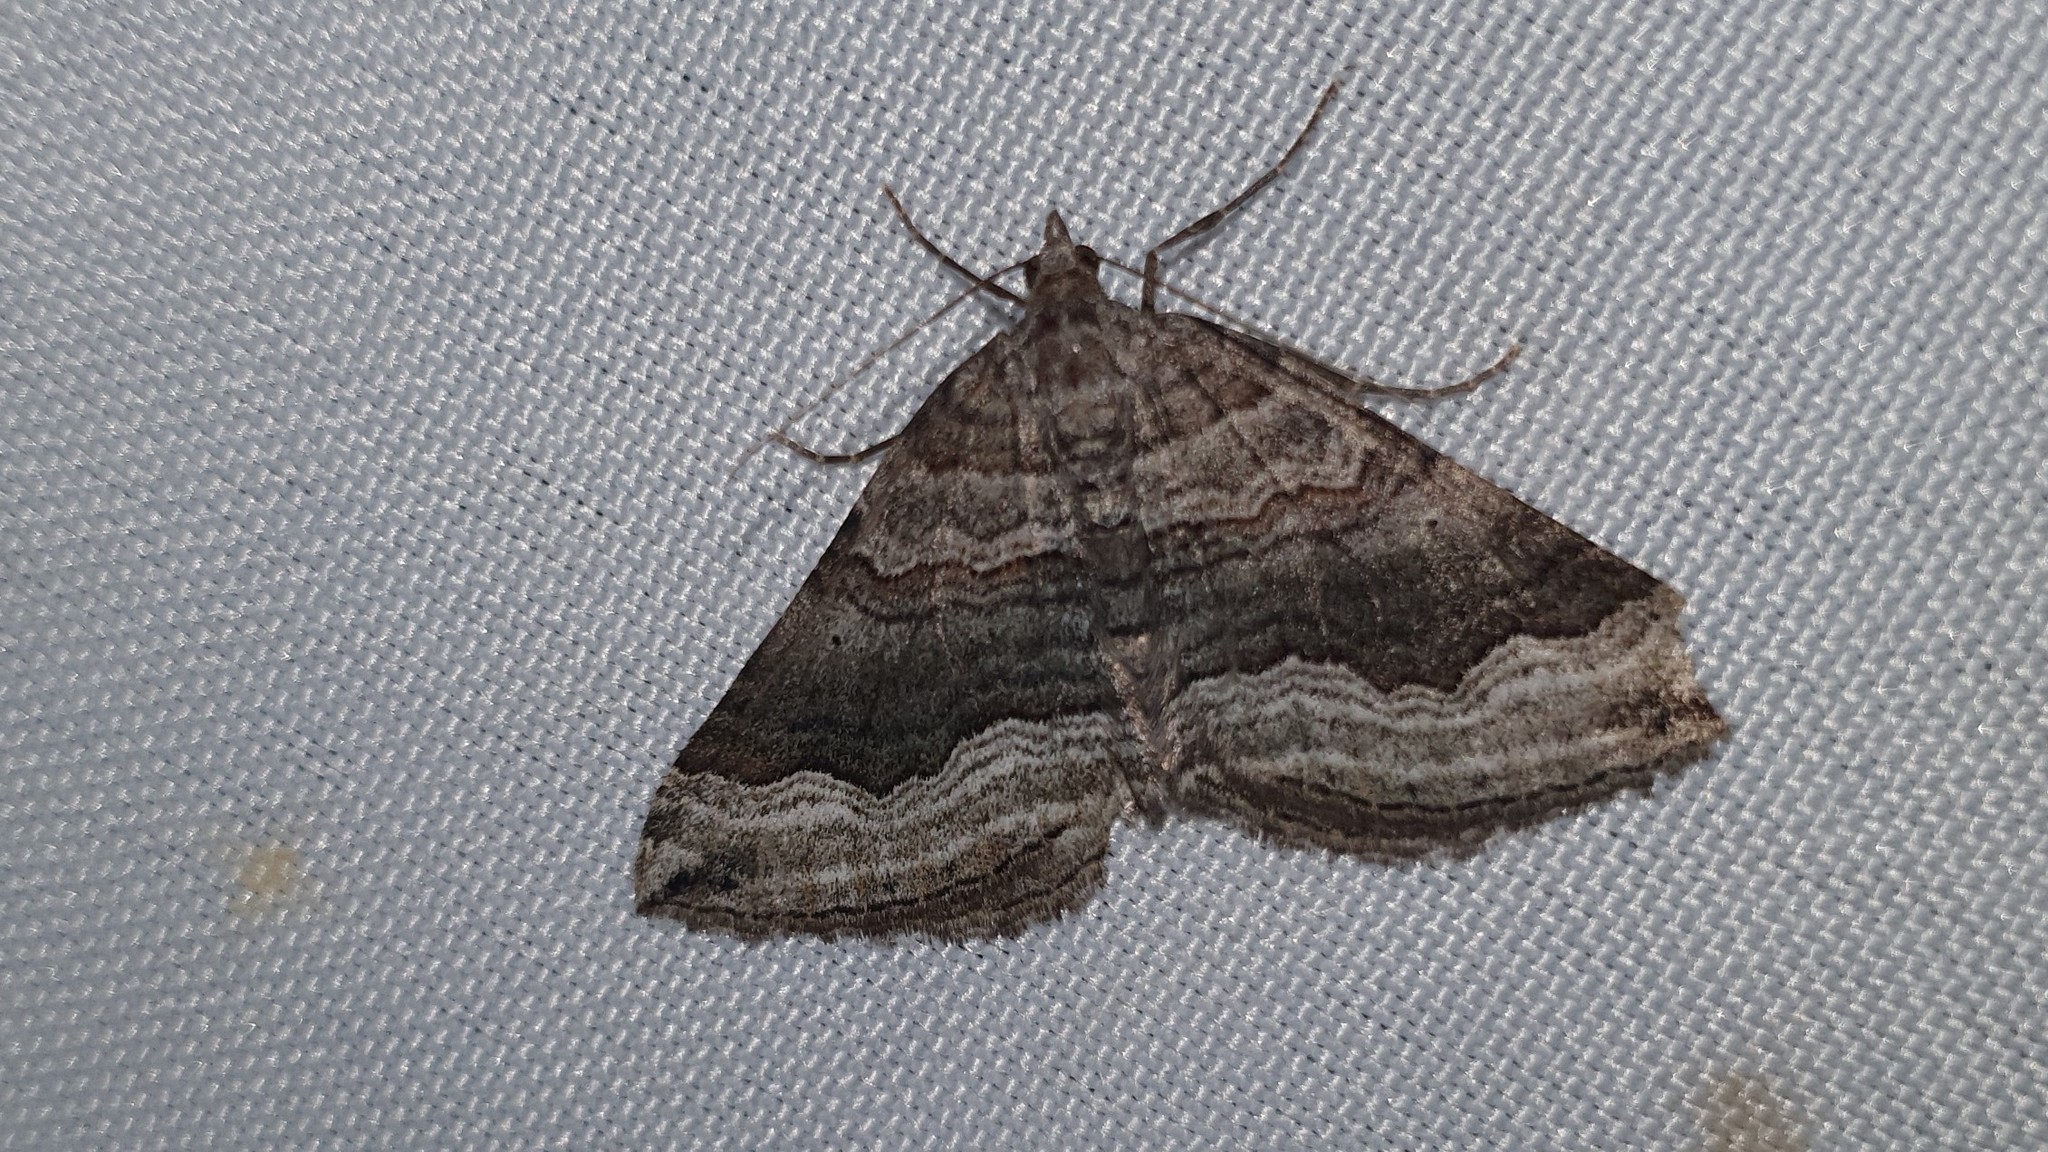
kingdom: Animalia
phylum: Arthropoda
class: Insecta
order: Lepidoptera
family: Geometridae
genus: Scotopteryx
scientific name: Scotopteryx coelinaria
